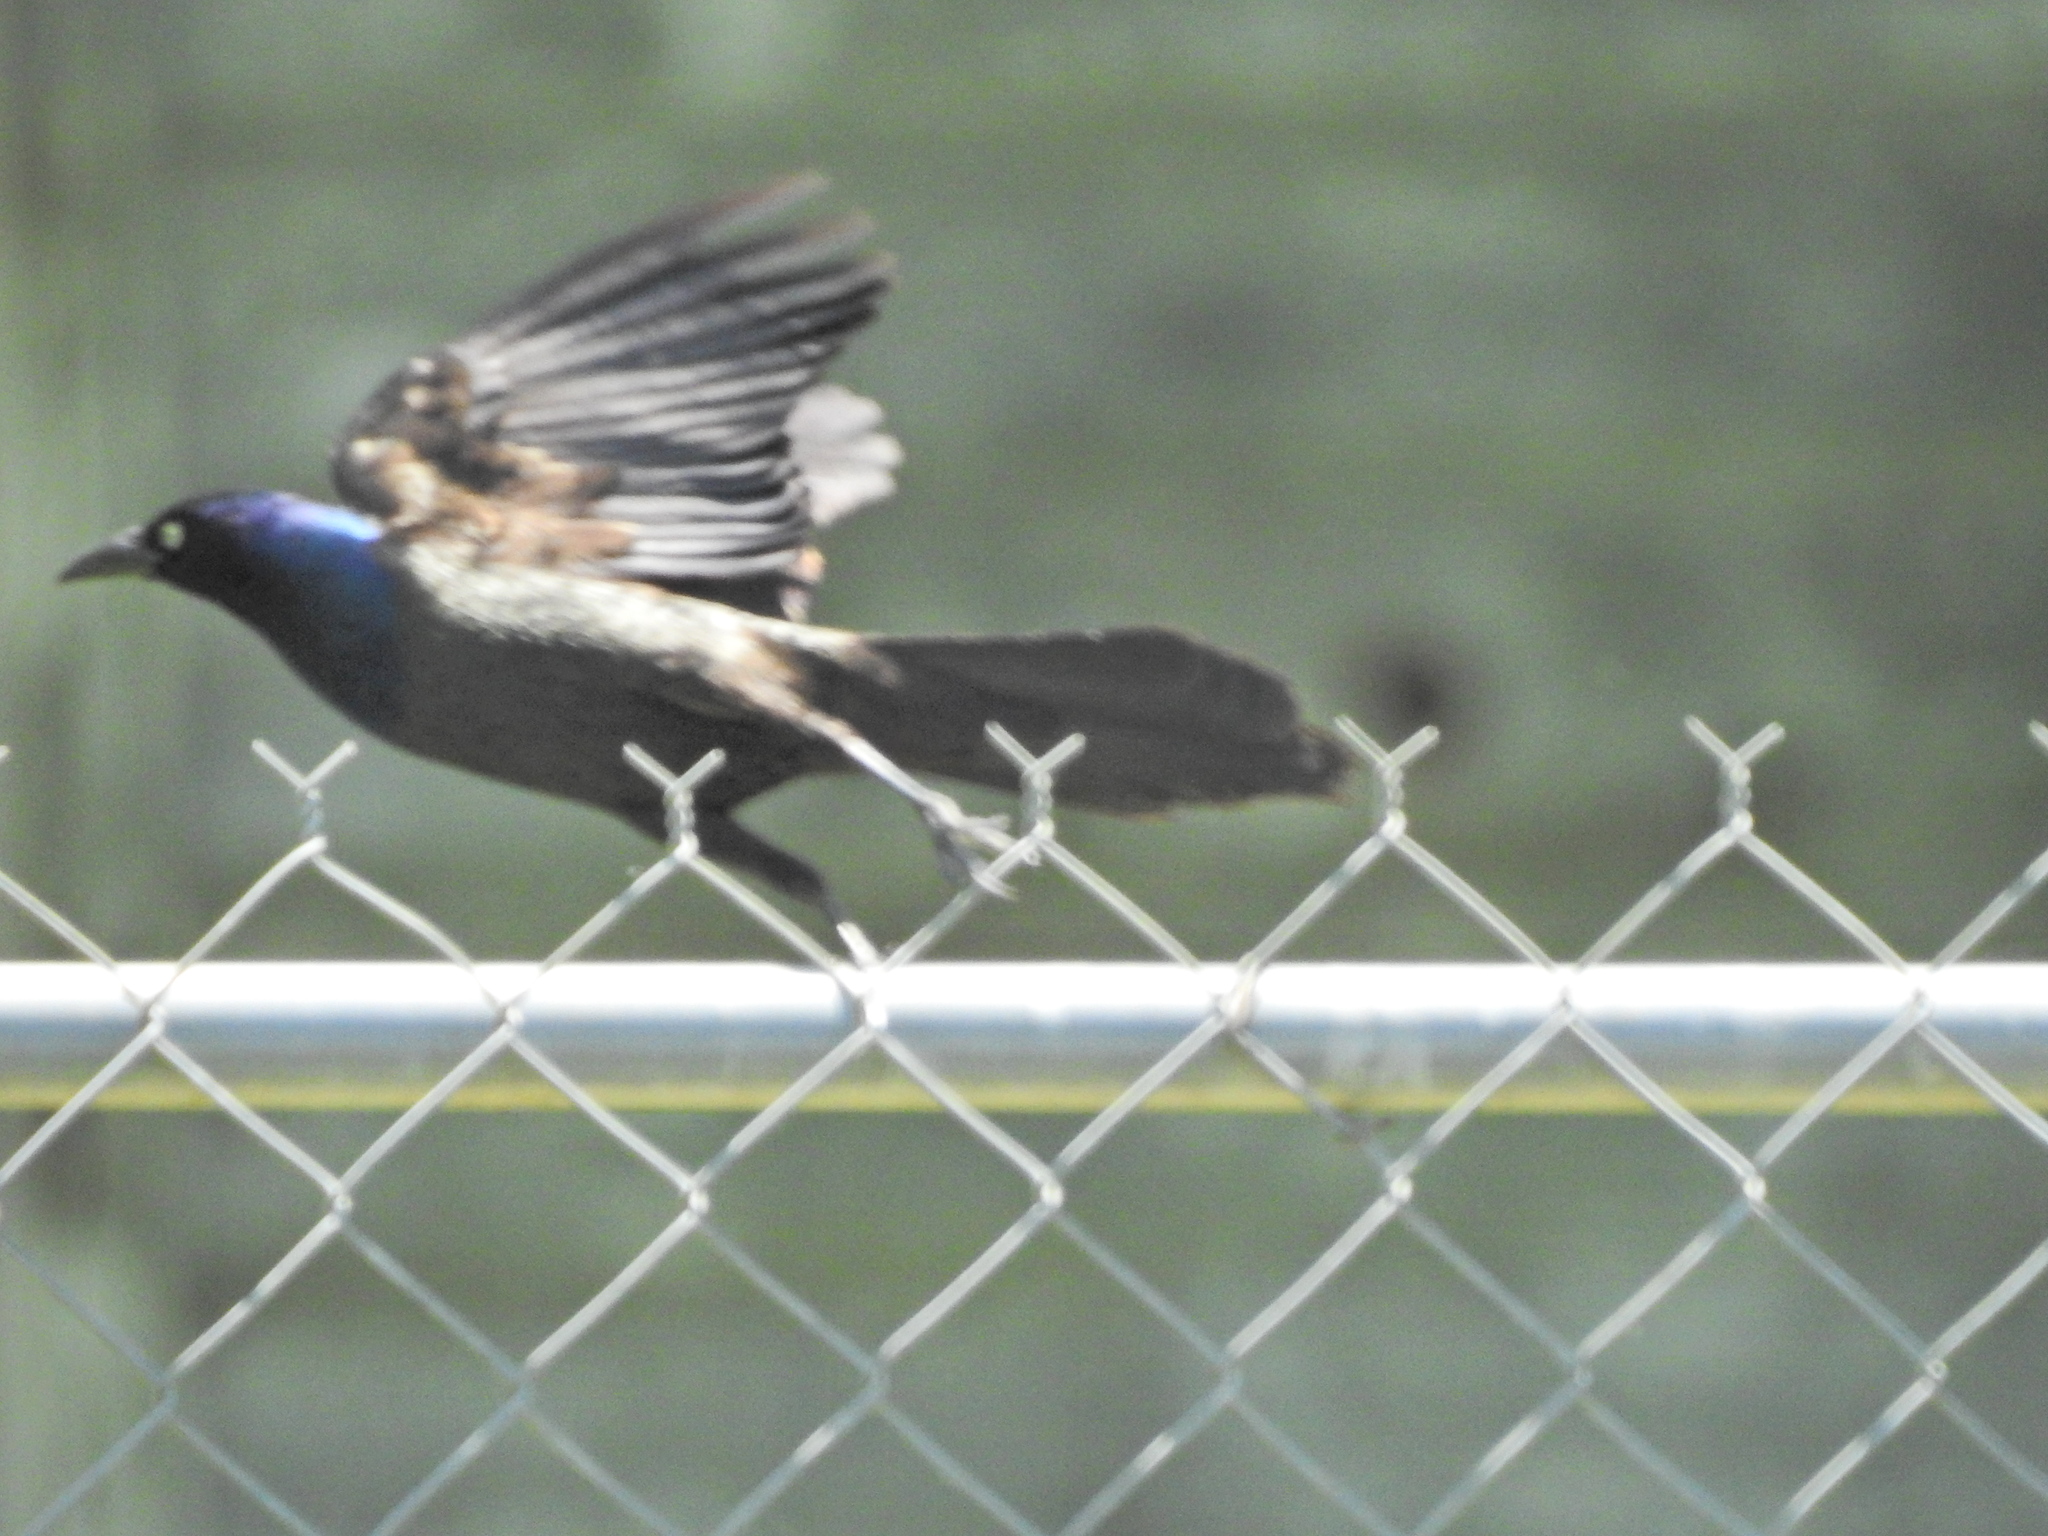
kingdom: Animalia
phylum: Chordata
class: Aves
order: Passeriformes
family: Icteridae
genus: Quiscalus
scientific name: Quiscalus quiscula
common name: Common grackle
